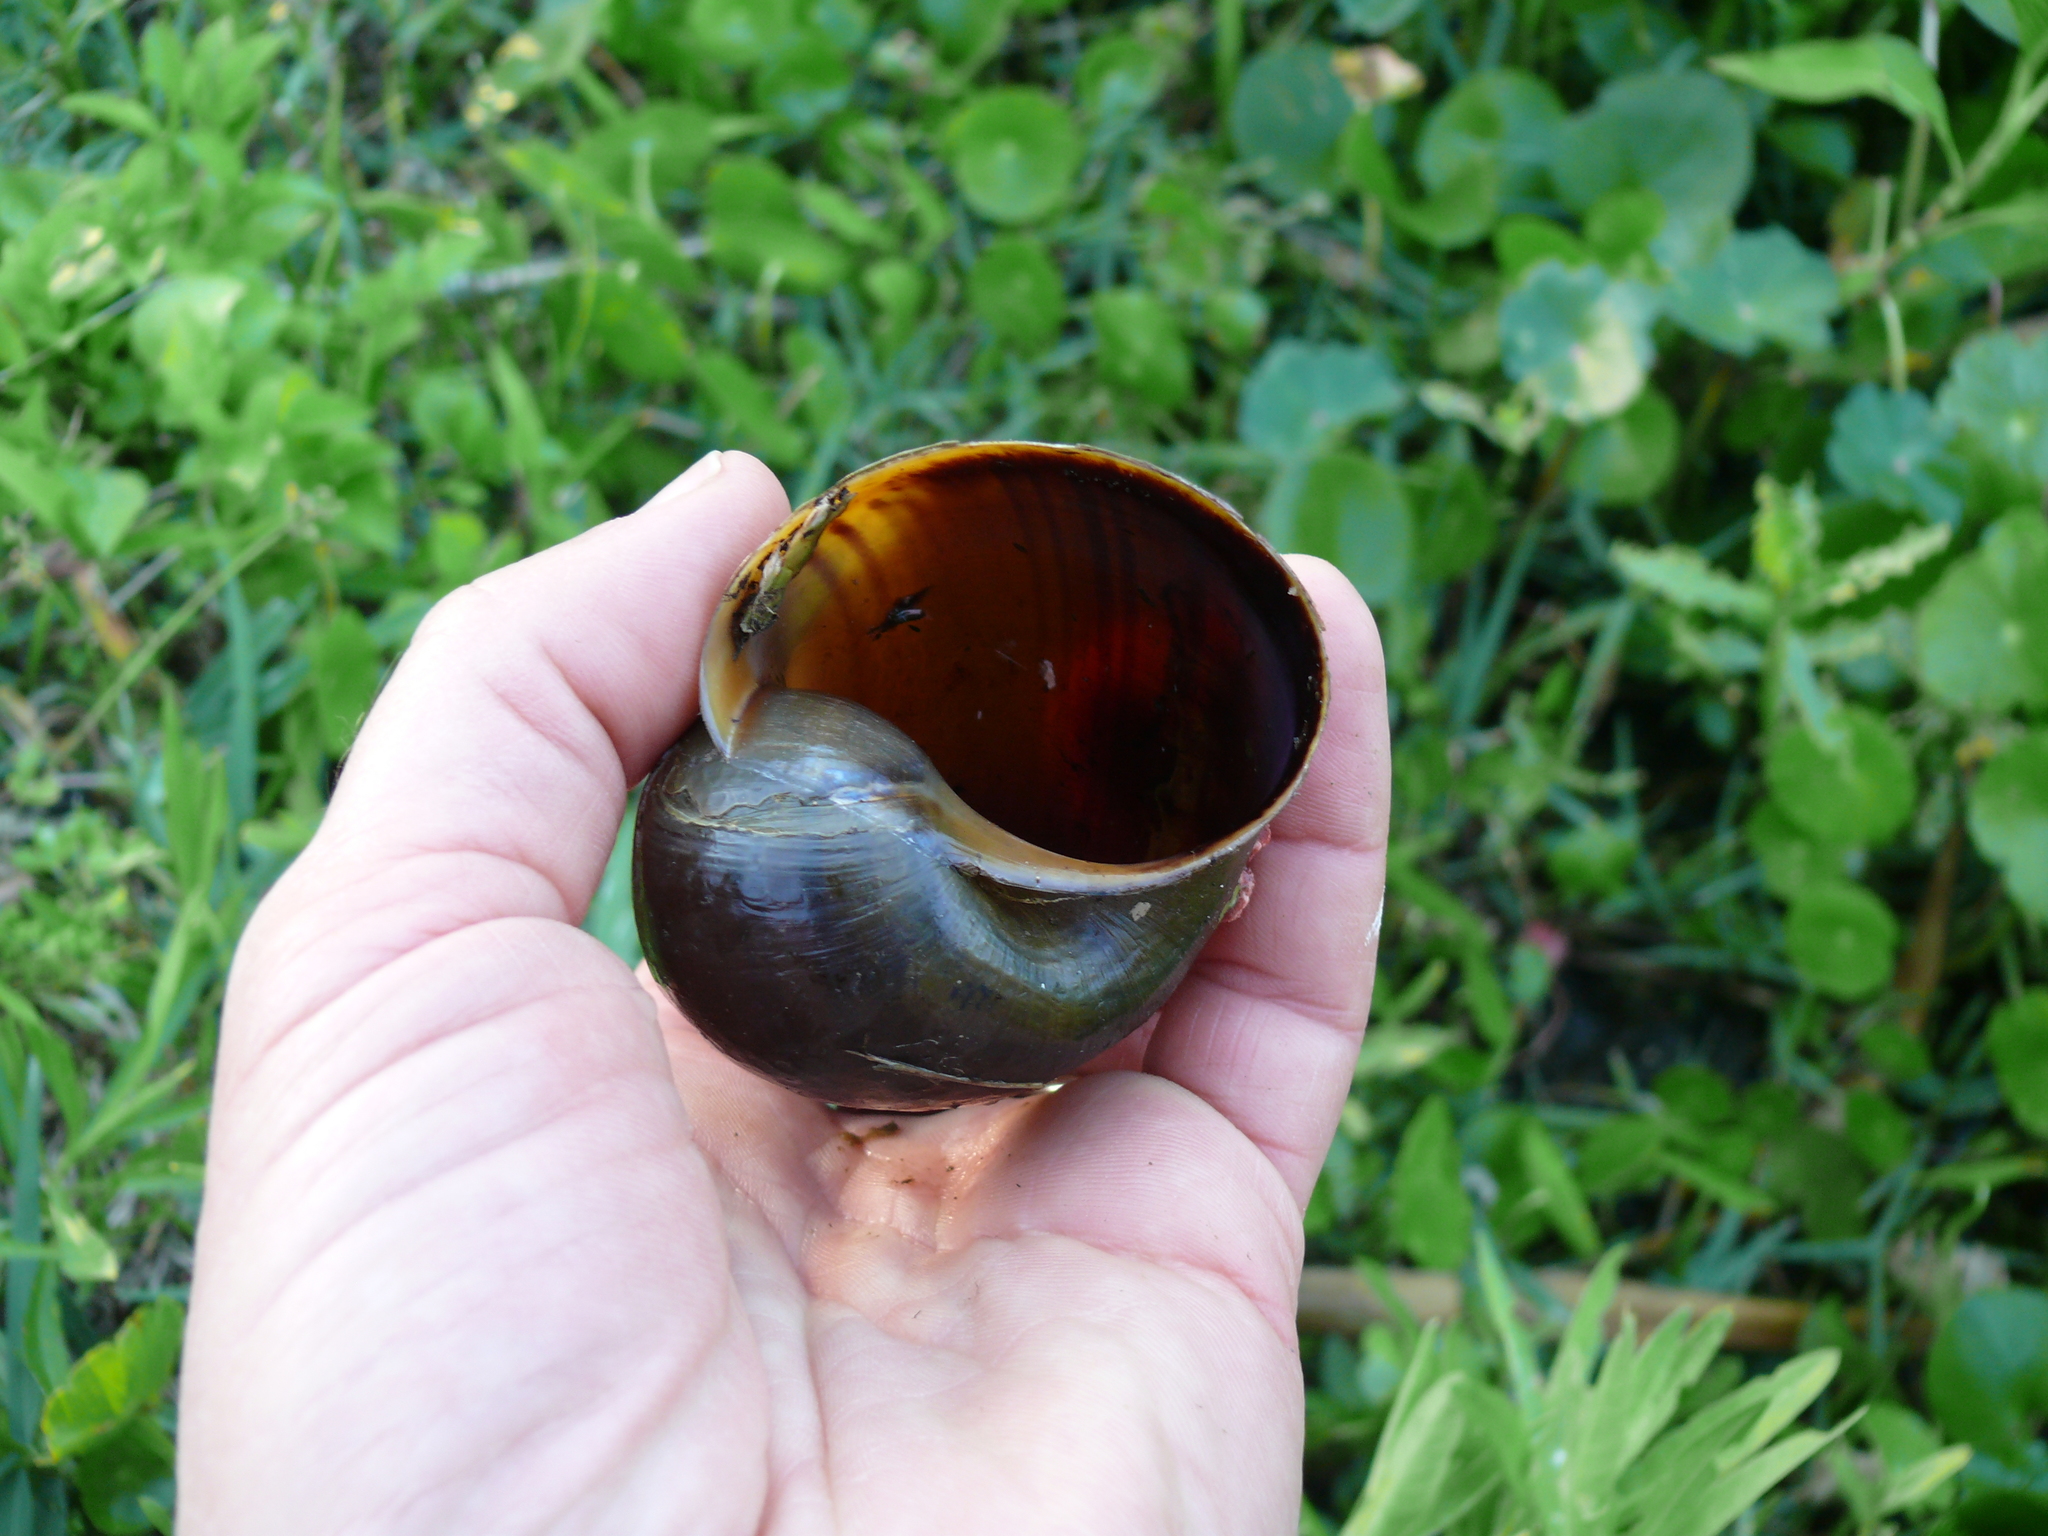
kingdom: Animalia
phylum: Mollusca
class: Gastropoda
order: Architaenioglossa
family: Ampullariidae
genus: Pomacea
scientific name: Pomacea maculata
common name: Giant applesnail
